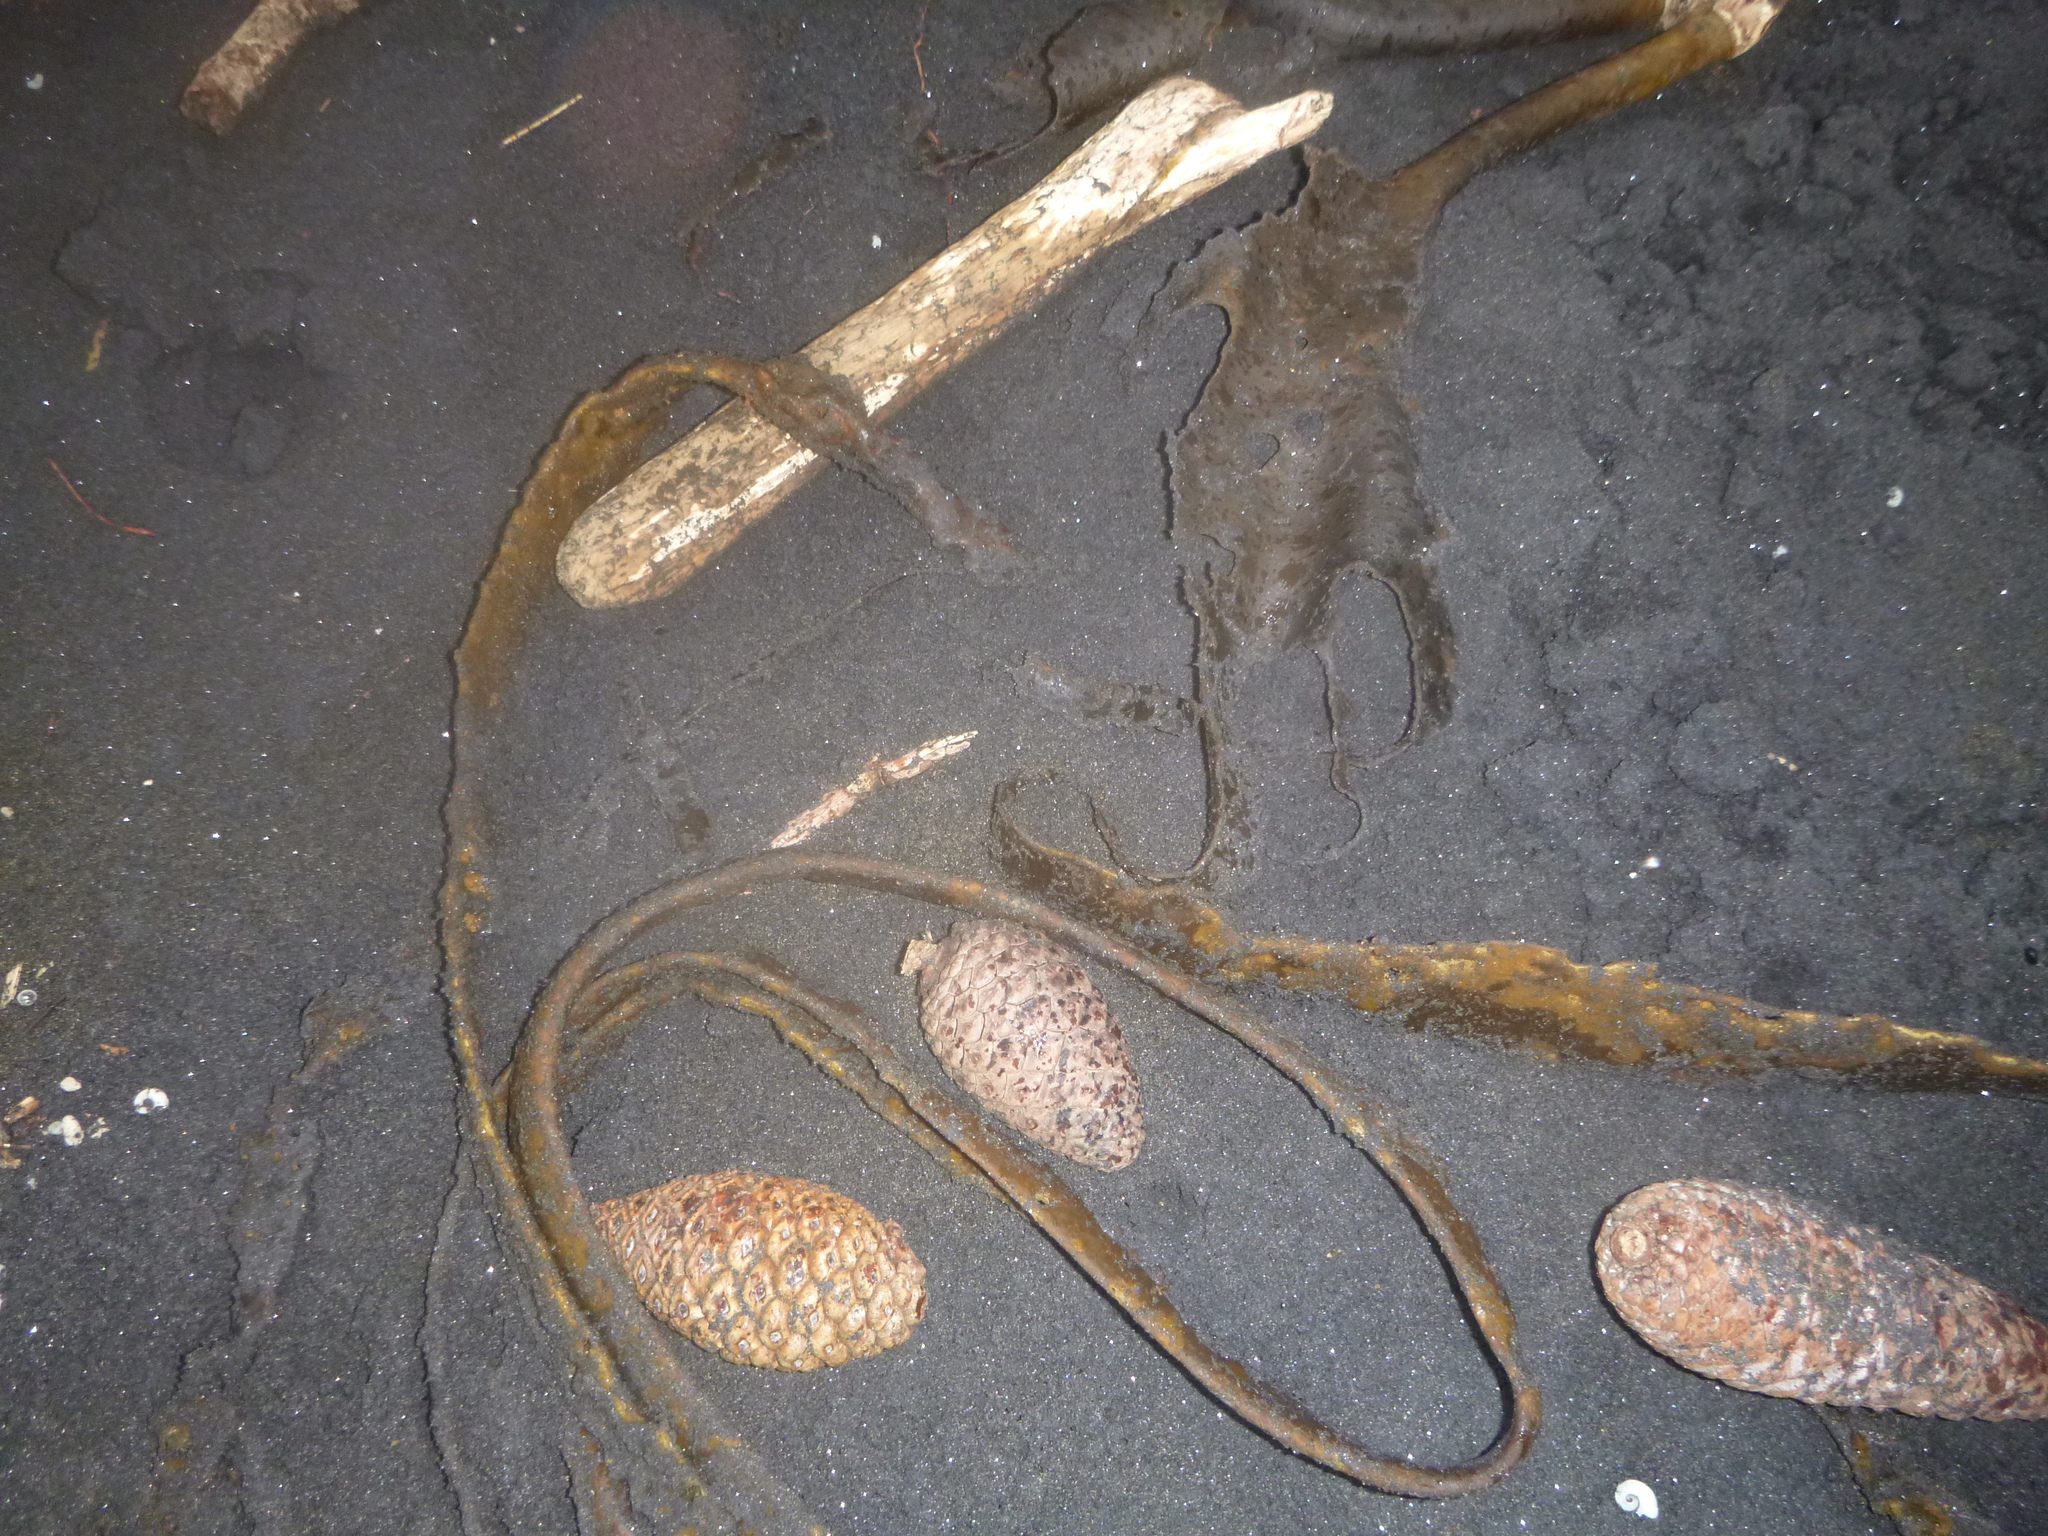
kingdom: Chromista
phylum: Ochrophyta
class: Phaeophyceae
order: Fucales
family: Durvillaeaceae
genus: Durvillaea
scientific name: Durvillaea antarctica
